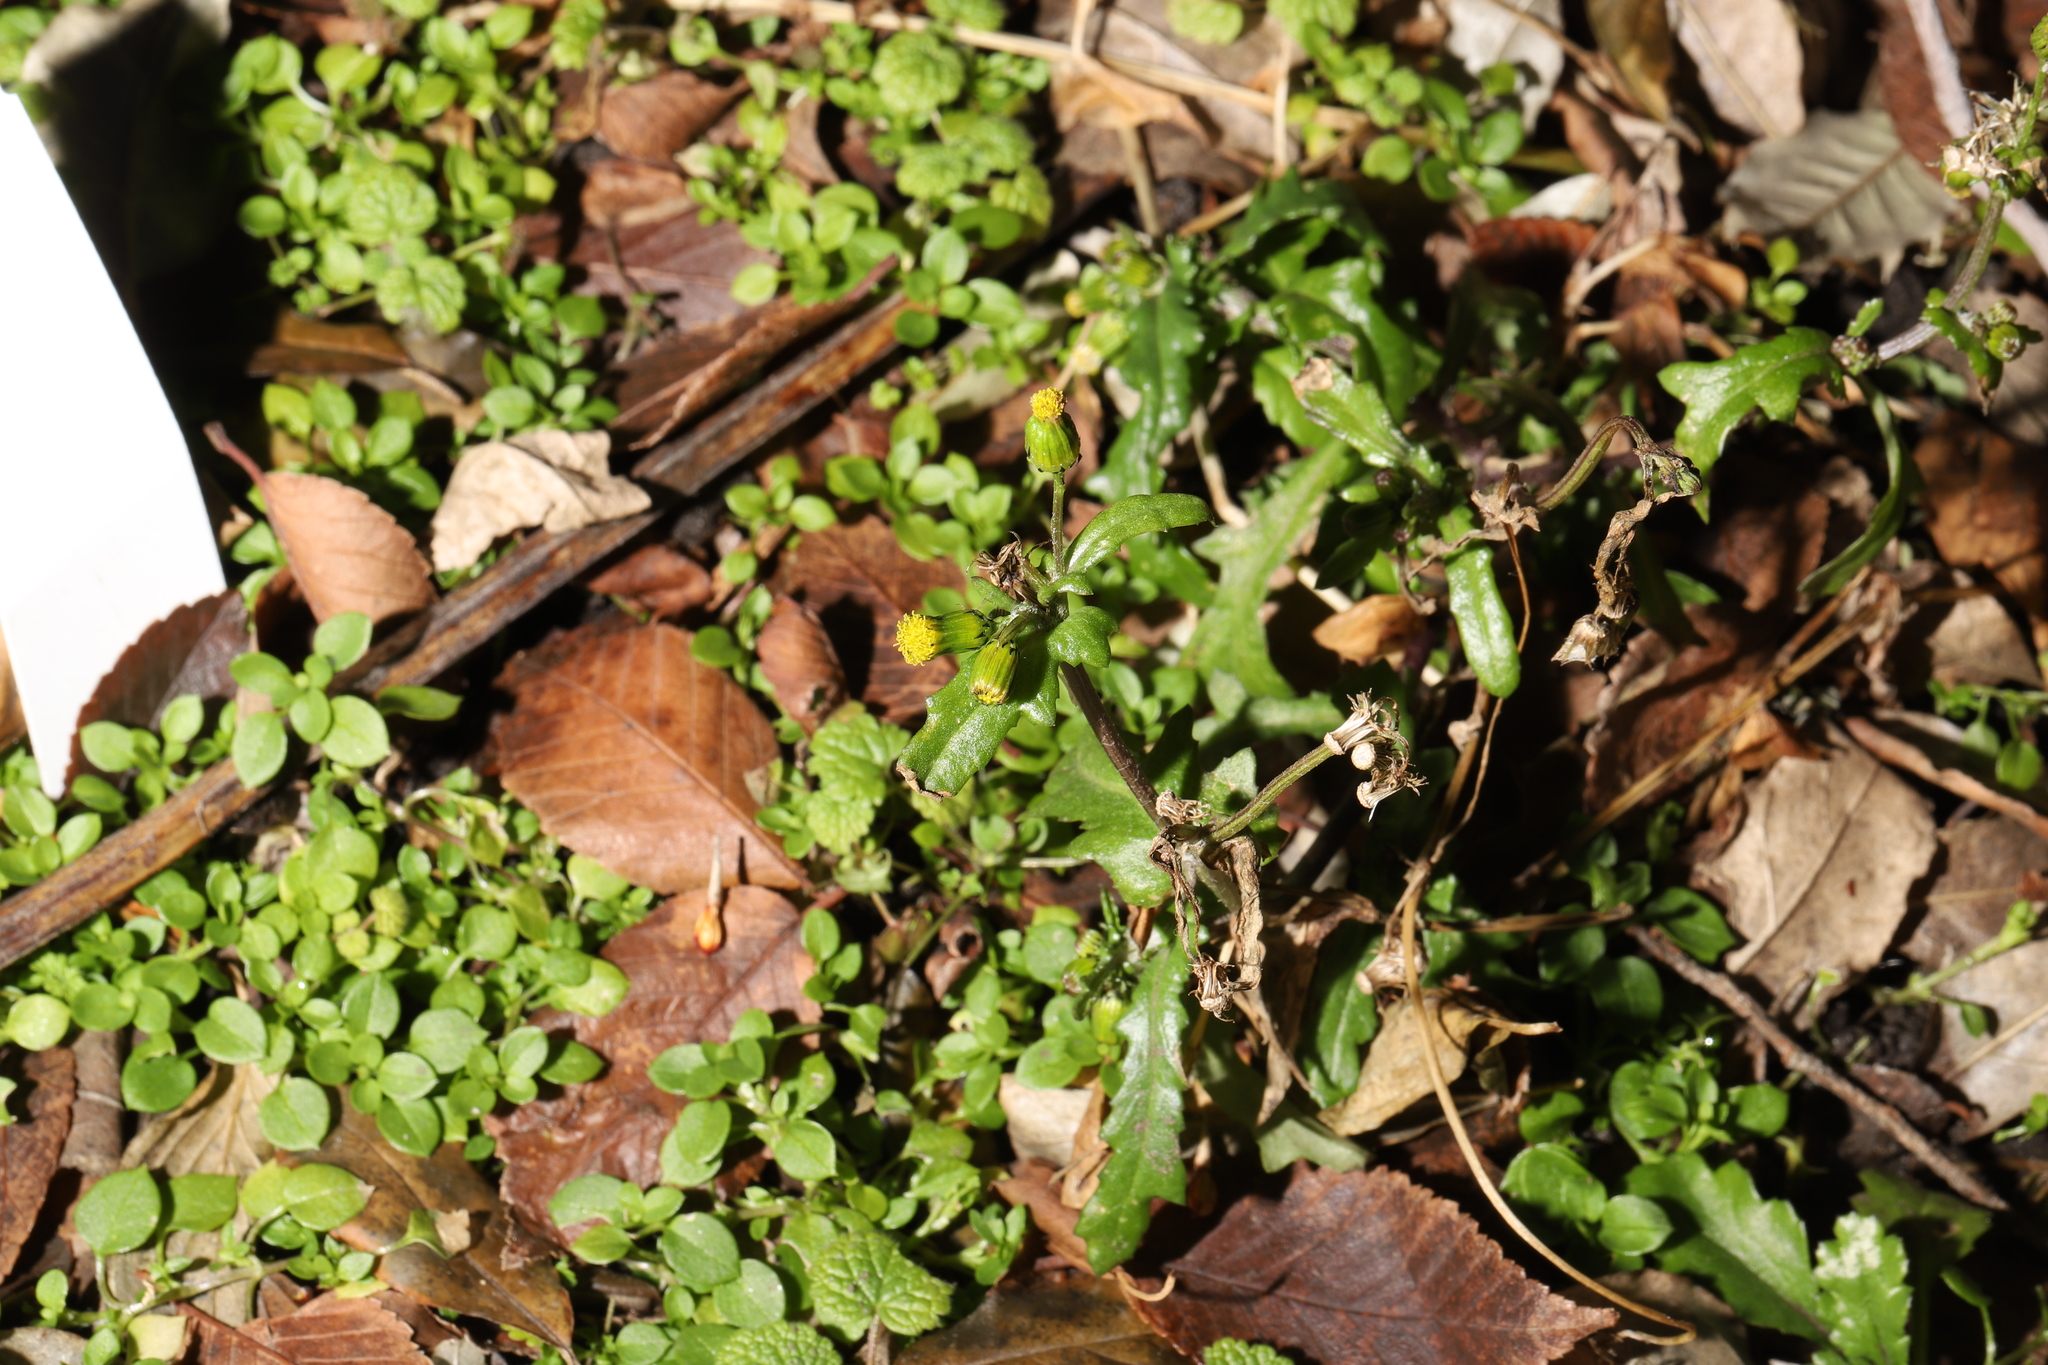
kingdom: Plantae
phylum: Tracheophyta
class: Magnoliopsida
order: Asterales
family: Asteraceae
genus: Senecio
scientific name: Senecio vulgaris
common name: Old-man-in-the-spring
